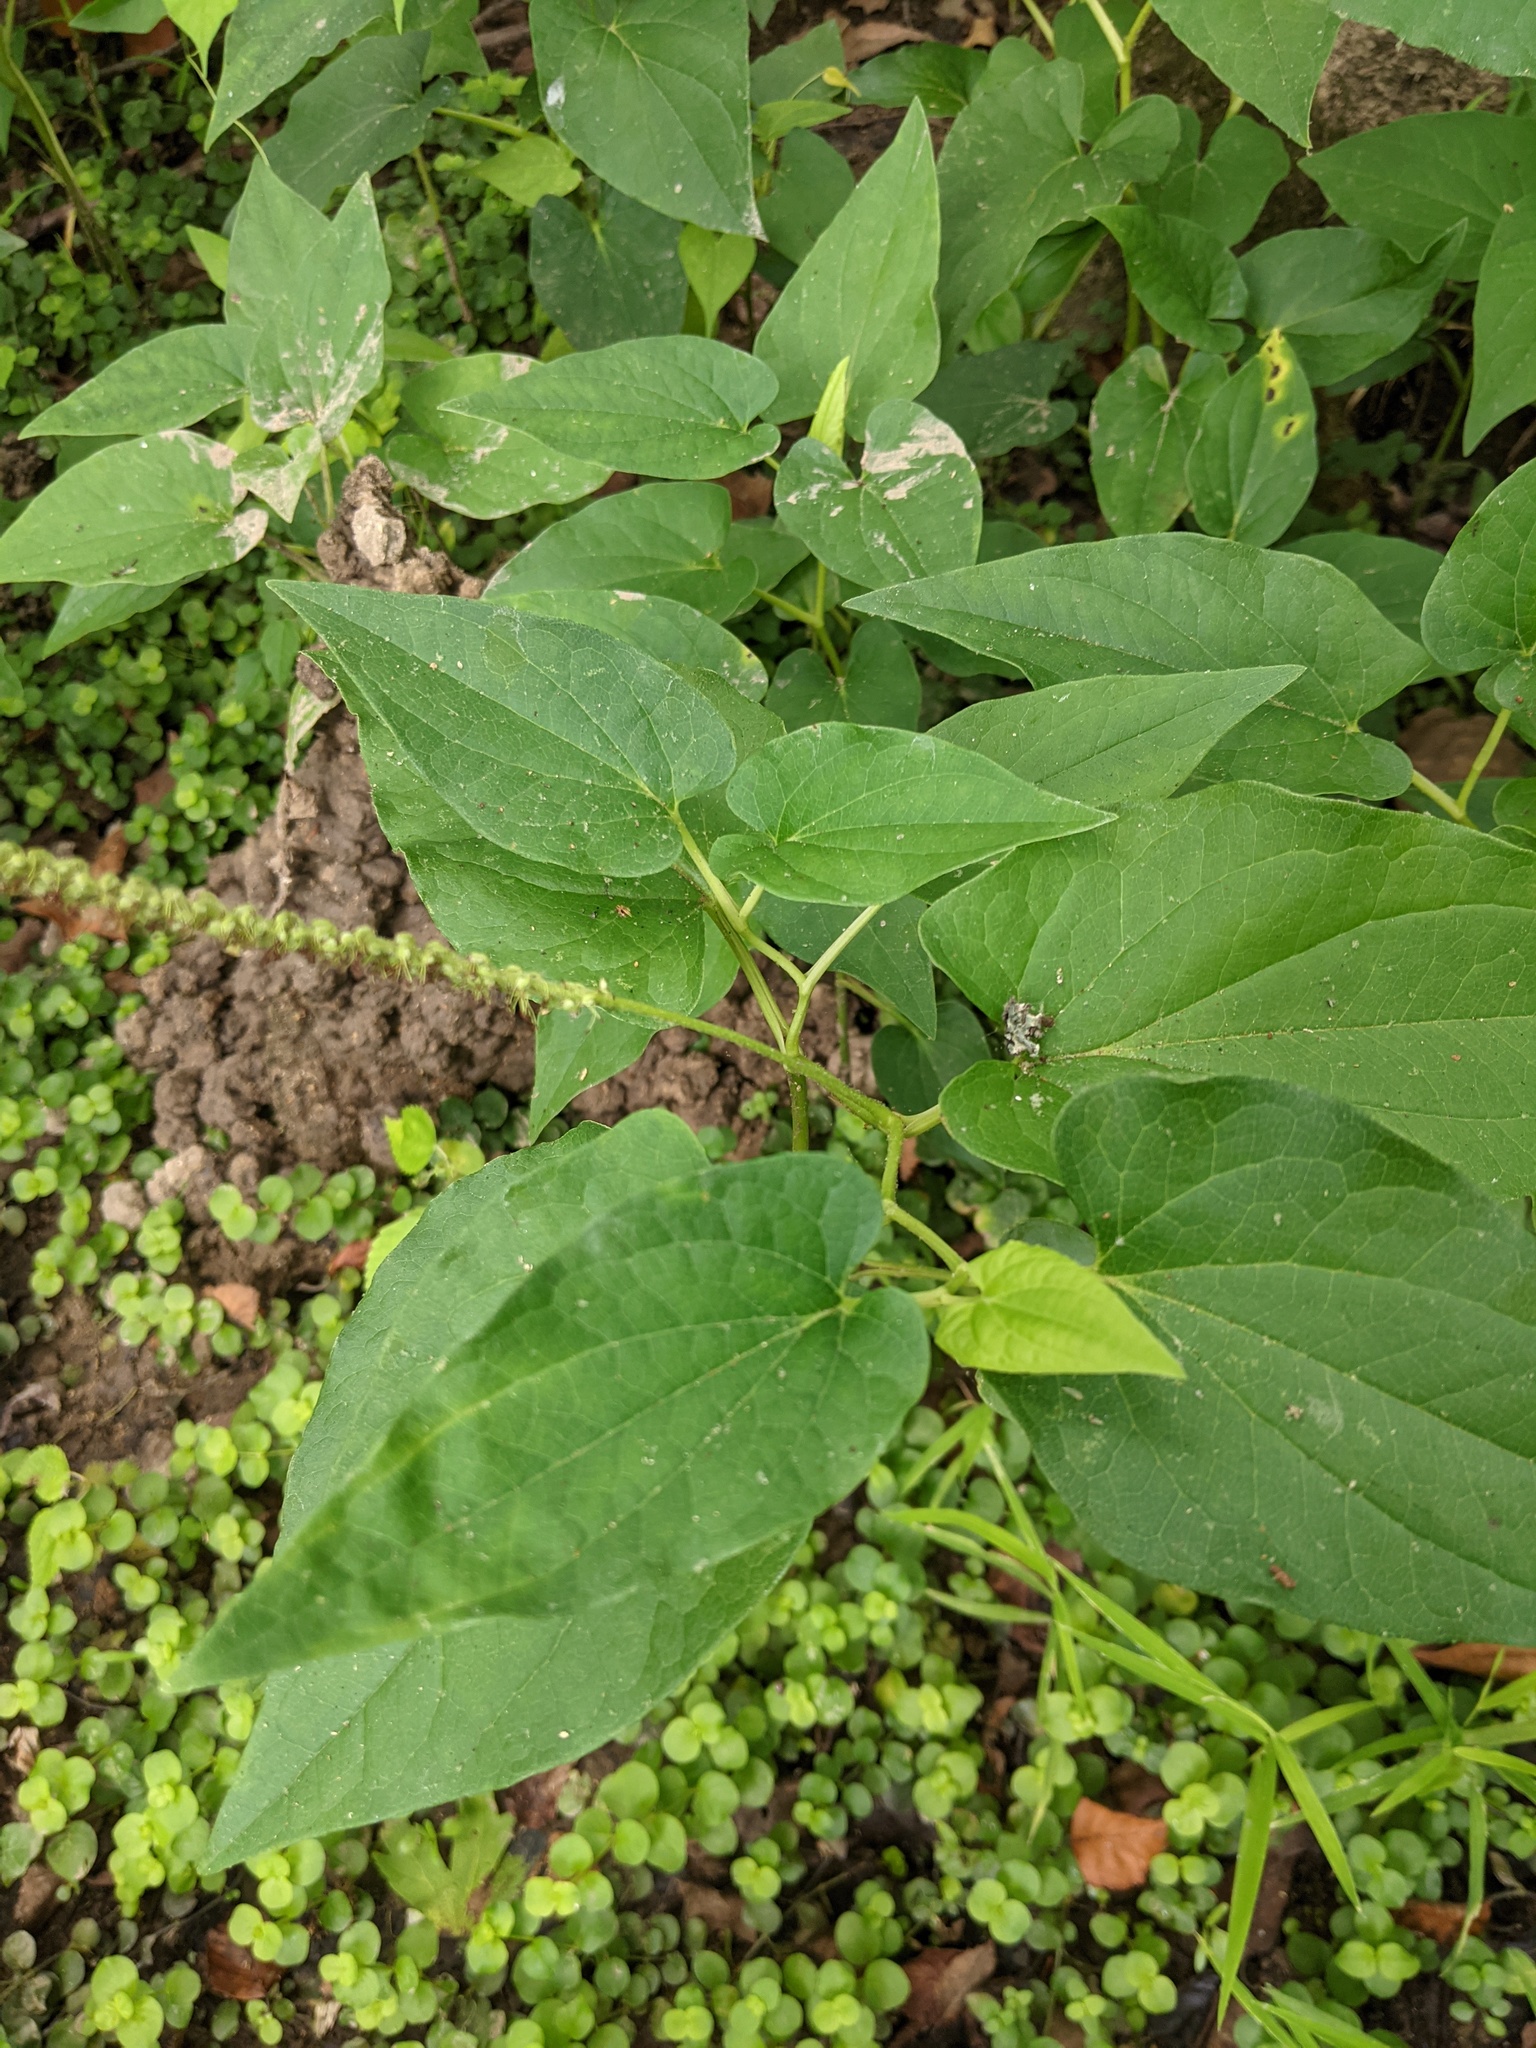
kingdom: Plantae
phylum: Tracheophyta
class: Magnoliopsida
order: Piperales
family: Saururaceae
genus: Saururus
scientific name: Saururus cernuus
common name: Lizard's-tail
